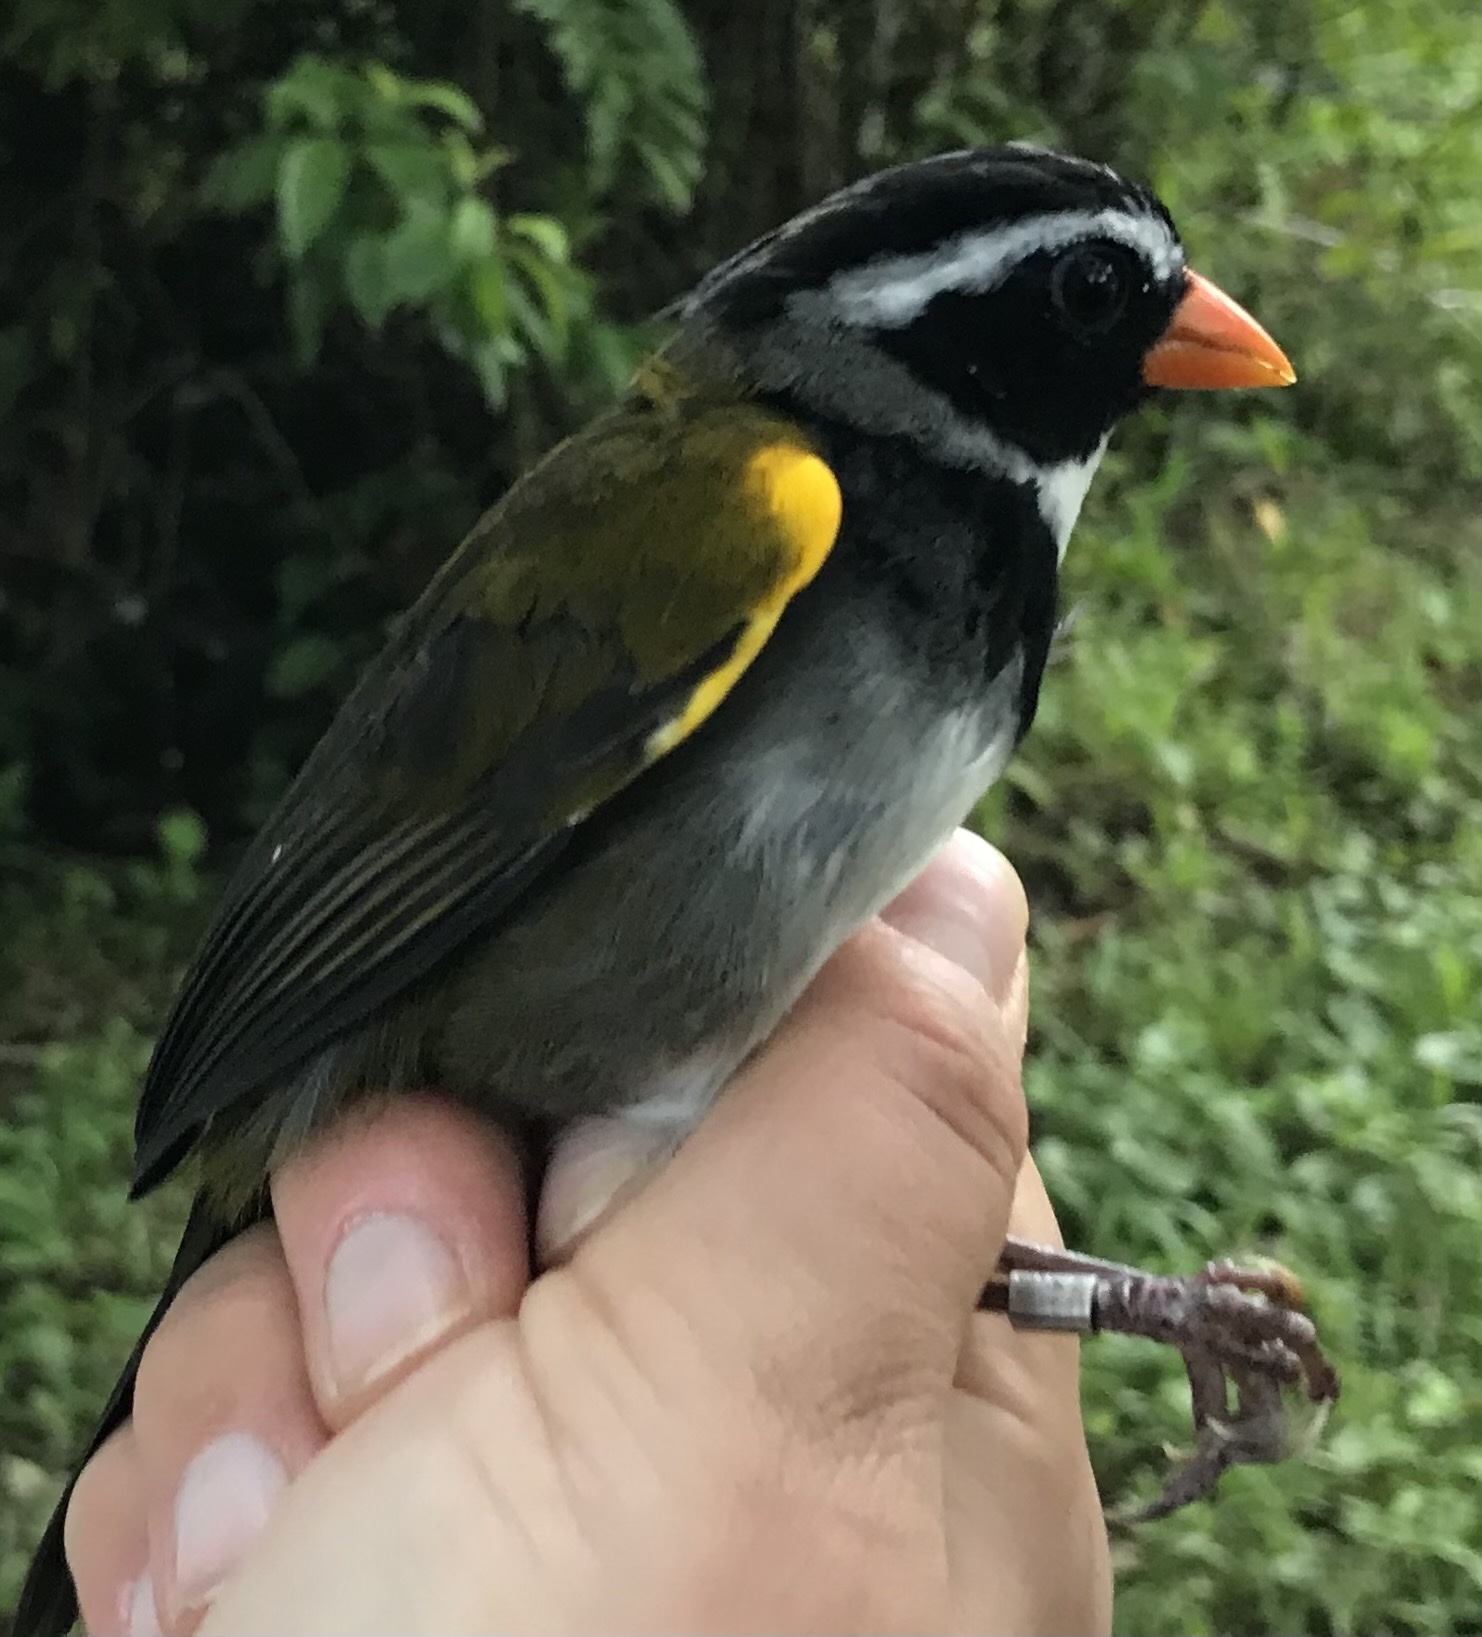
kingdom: Animalia
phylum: Chordata
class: Aves
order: Passeriformes
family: Passerellidae
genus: Arremon
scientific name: Arremon aurantiirostris
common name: Orange-billed sparrow
